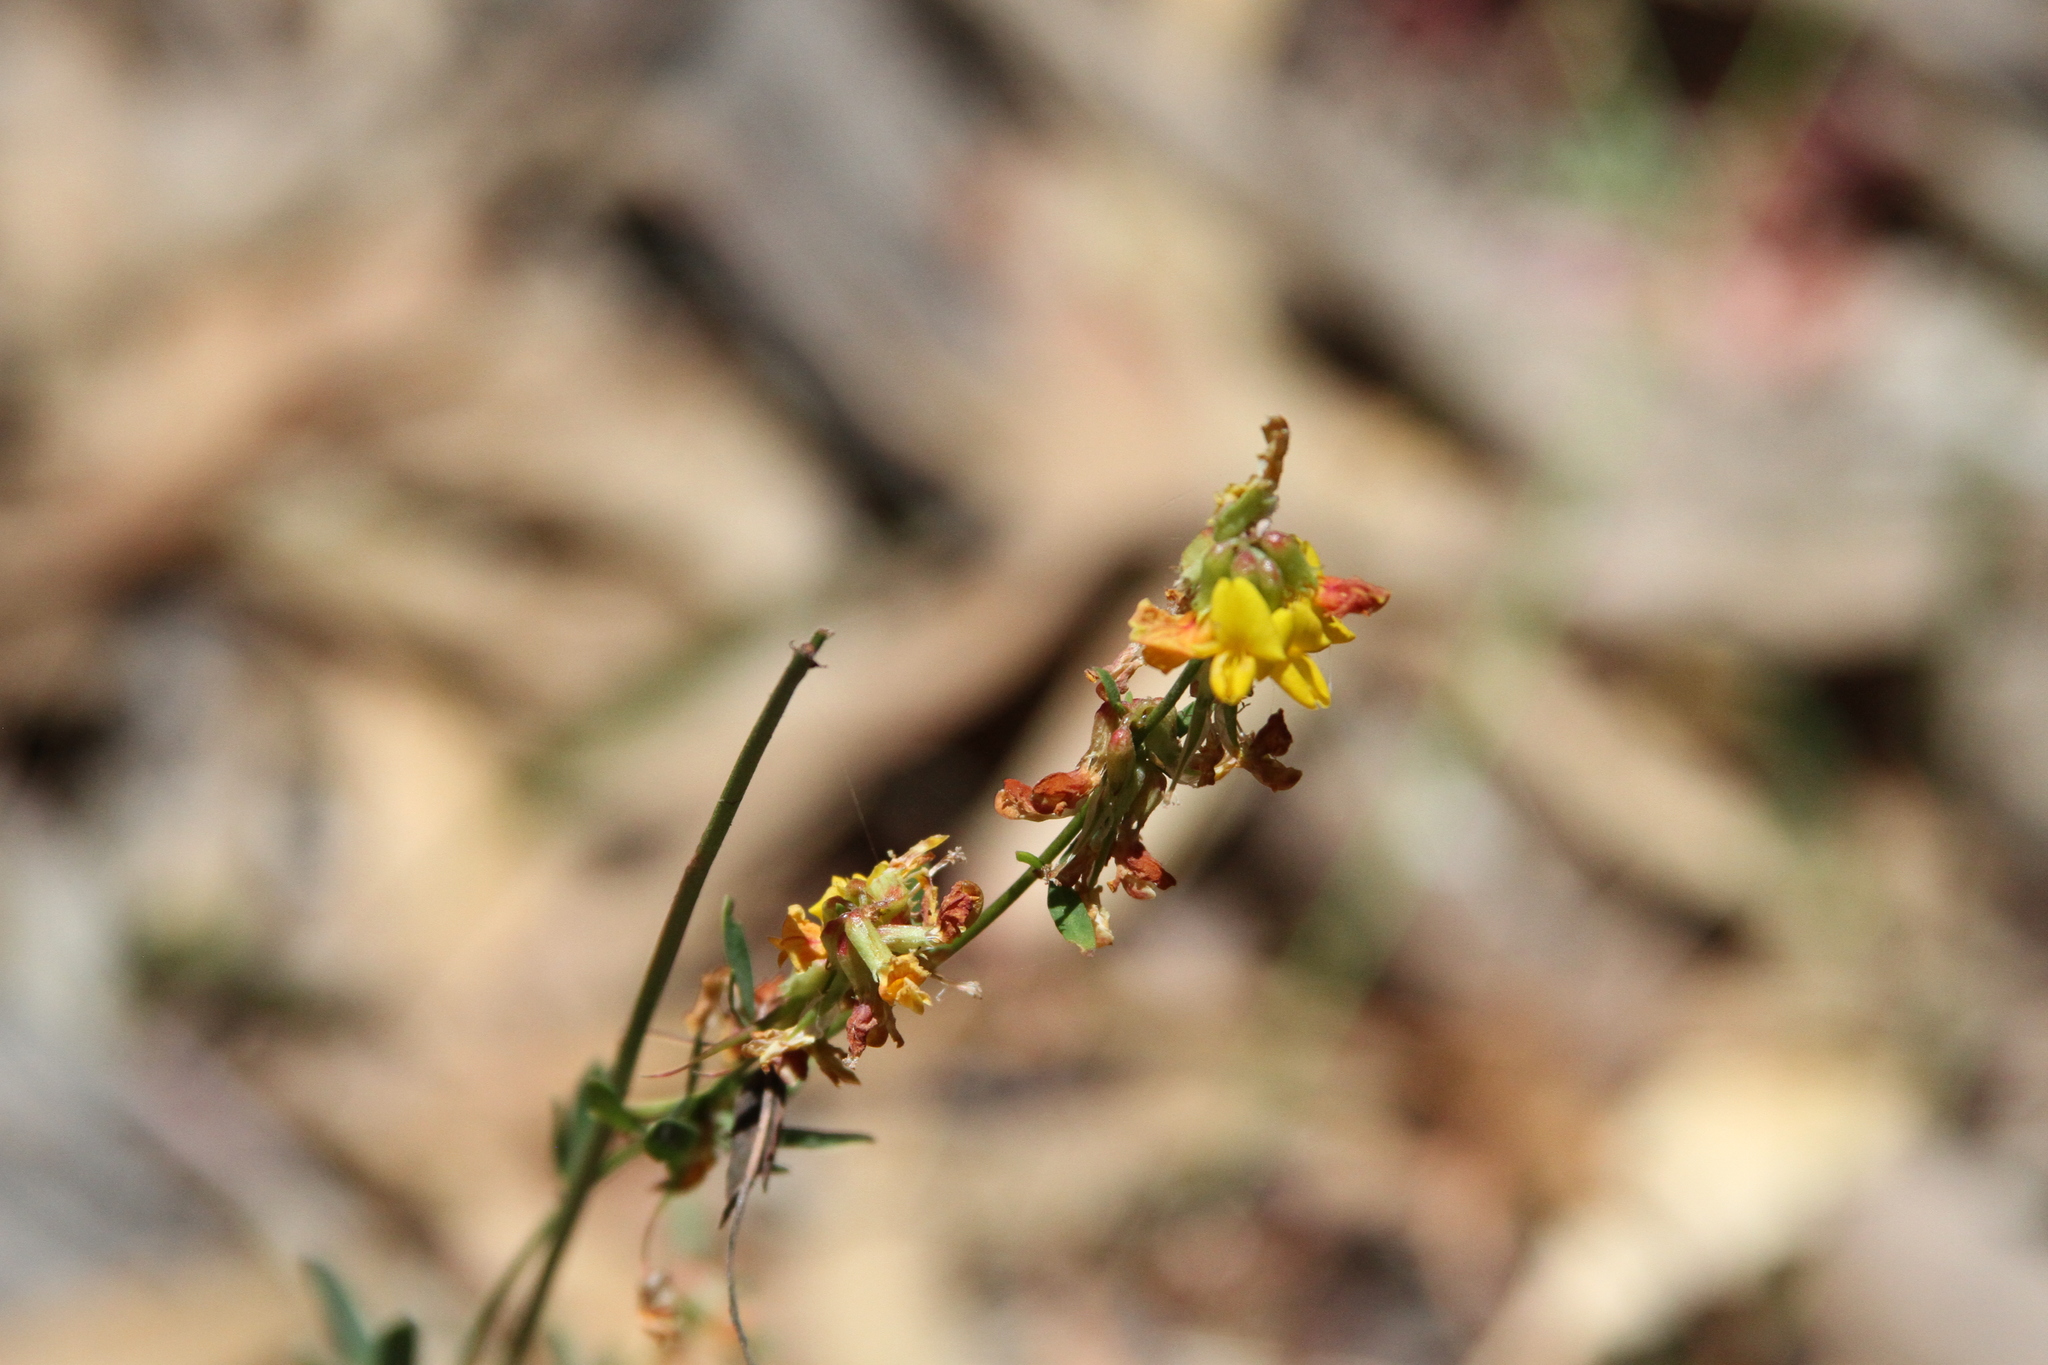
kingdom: Plantae
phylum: Tracheophyta
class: Magnoliopsida
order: Fabales
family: Fabaceae
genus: Acmispon
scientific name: Acmispon glaber
